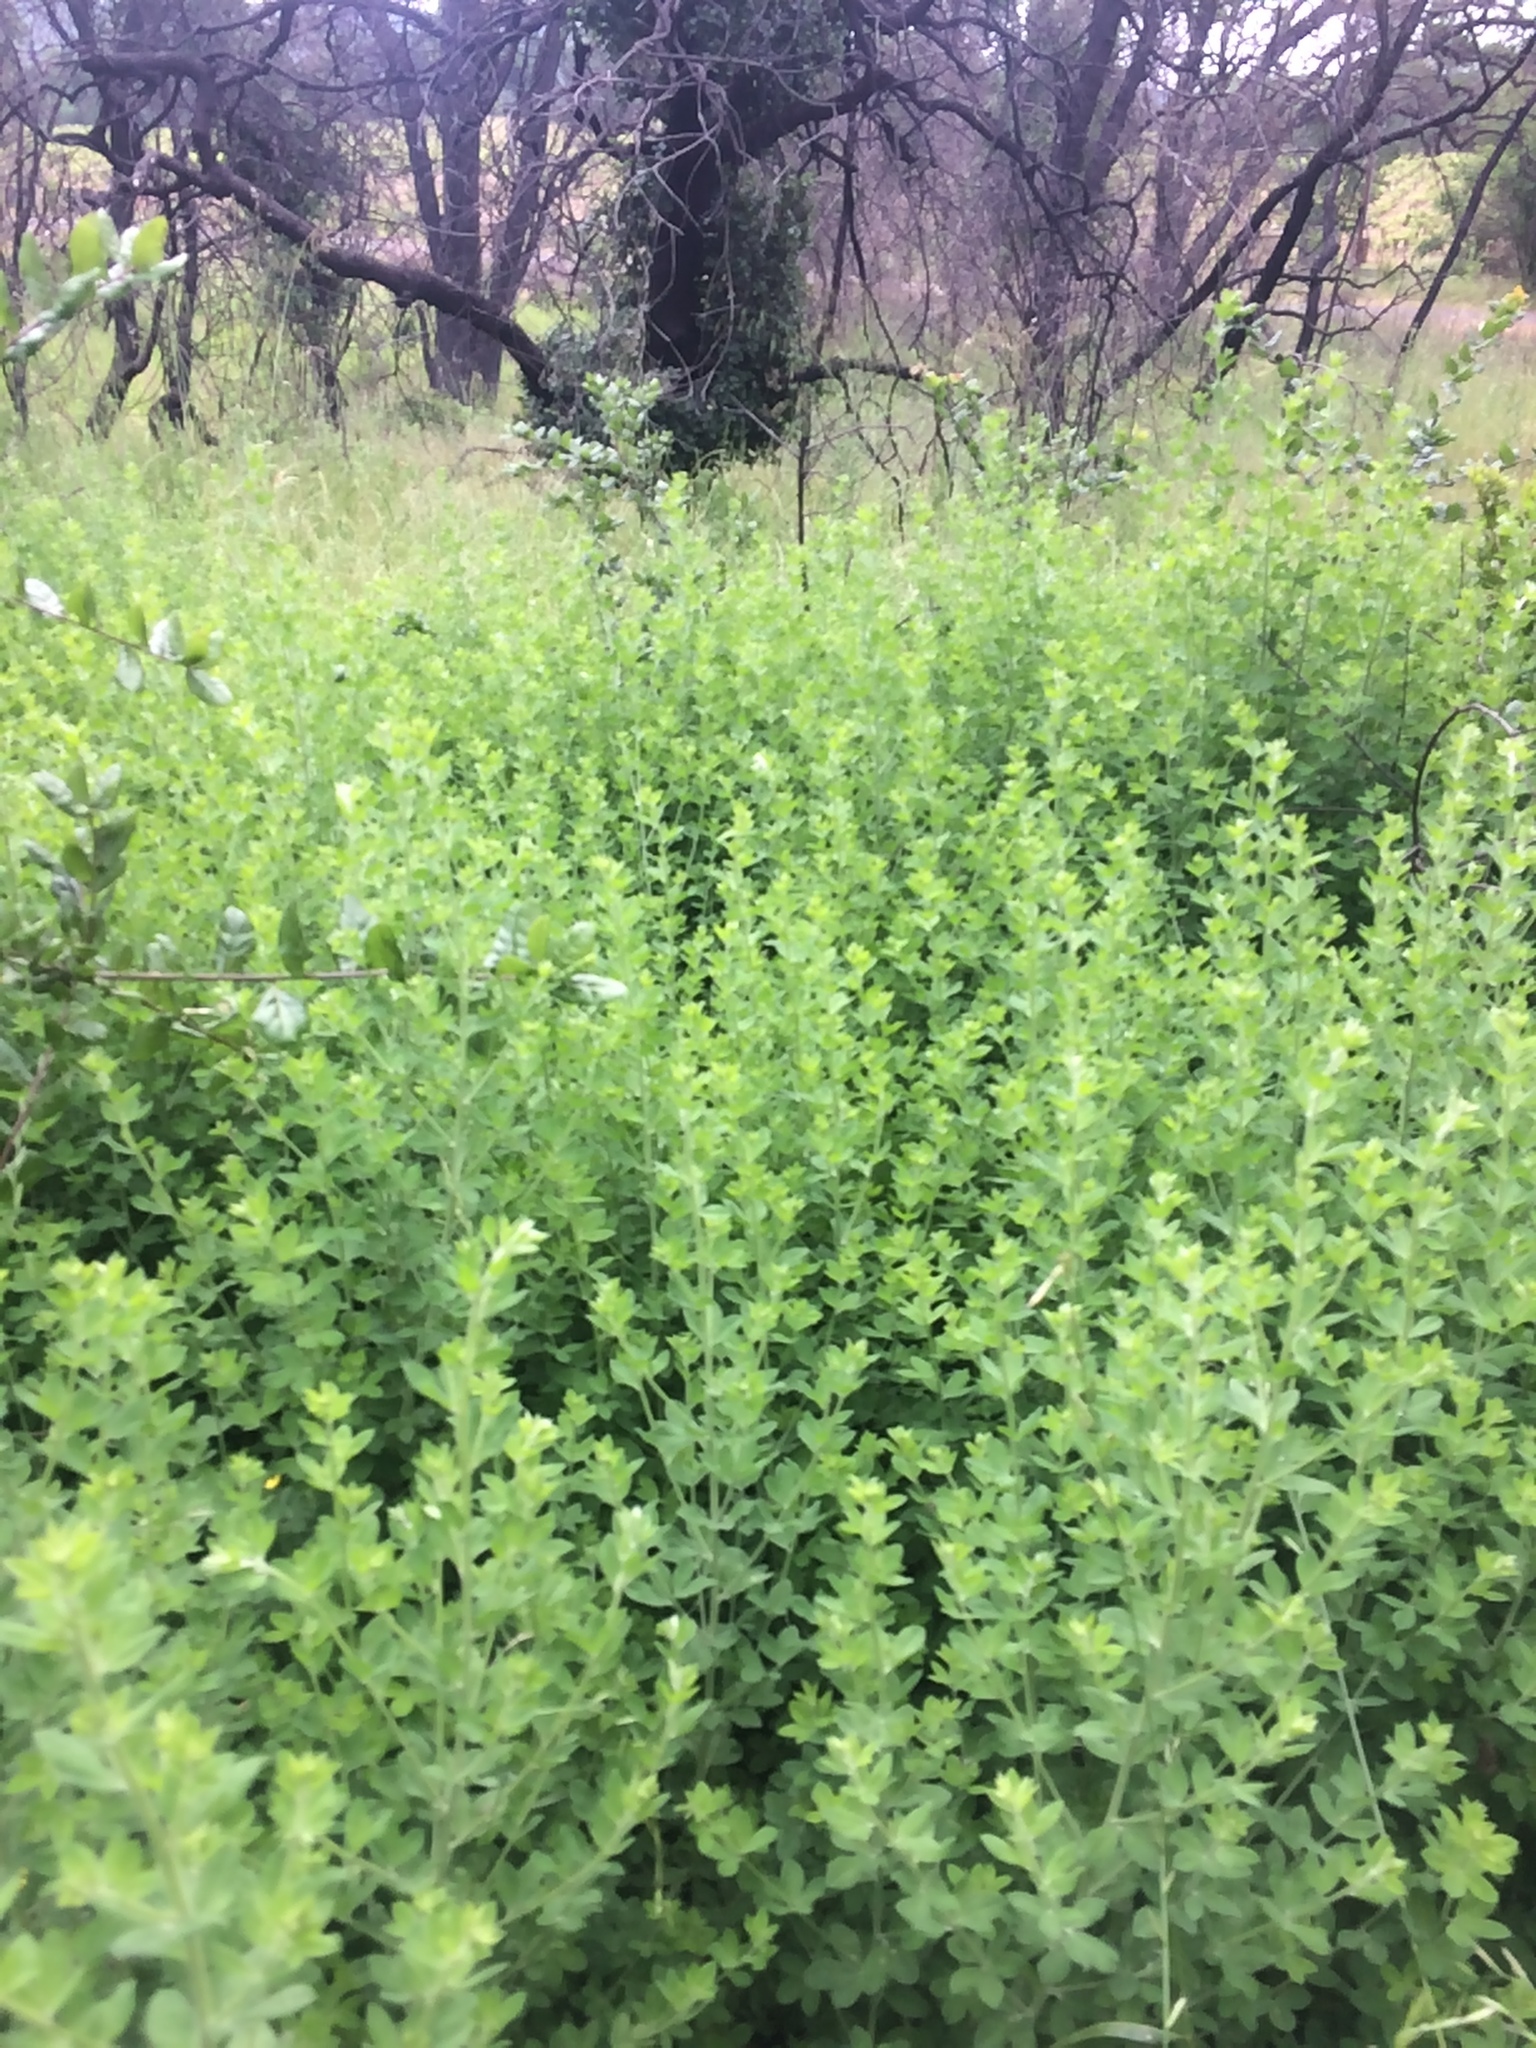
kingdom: Plantae
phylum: Tracheophyta
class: Magnoliopsida
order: Fabales
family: Fabaceae
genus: Genista
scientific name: Genista monspessulana
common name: Montpellier broom
